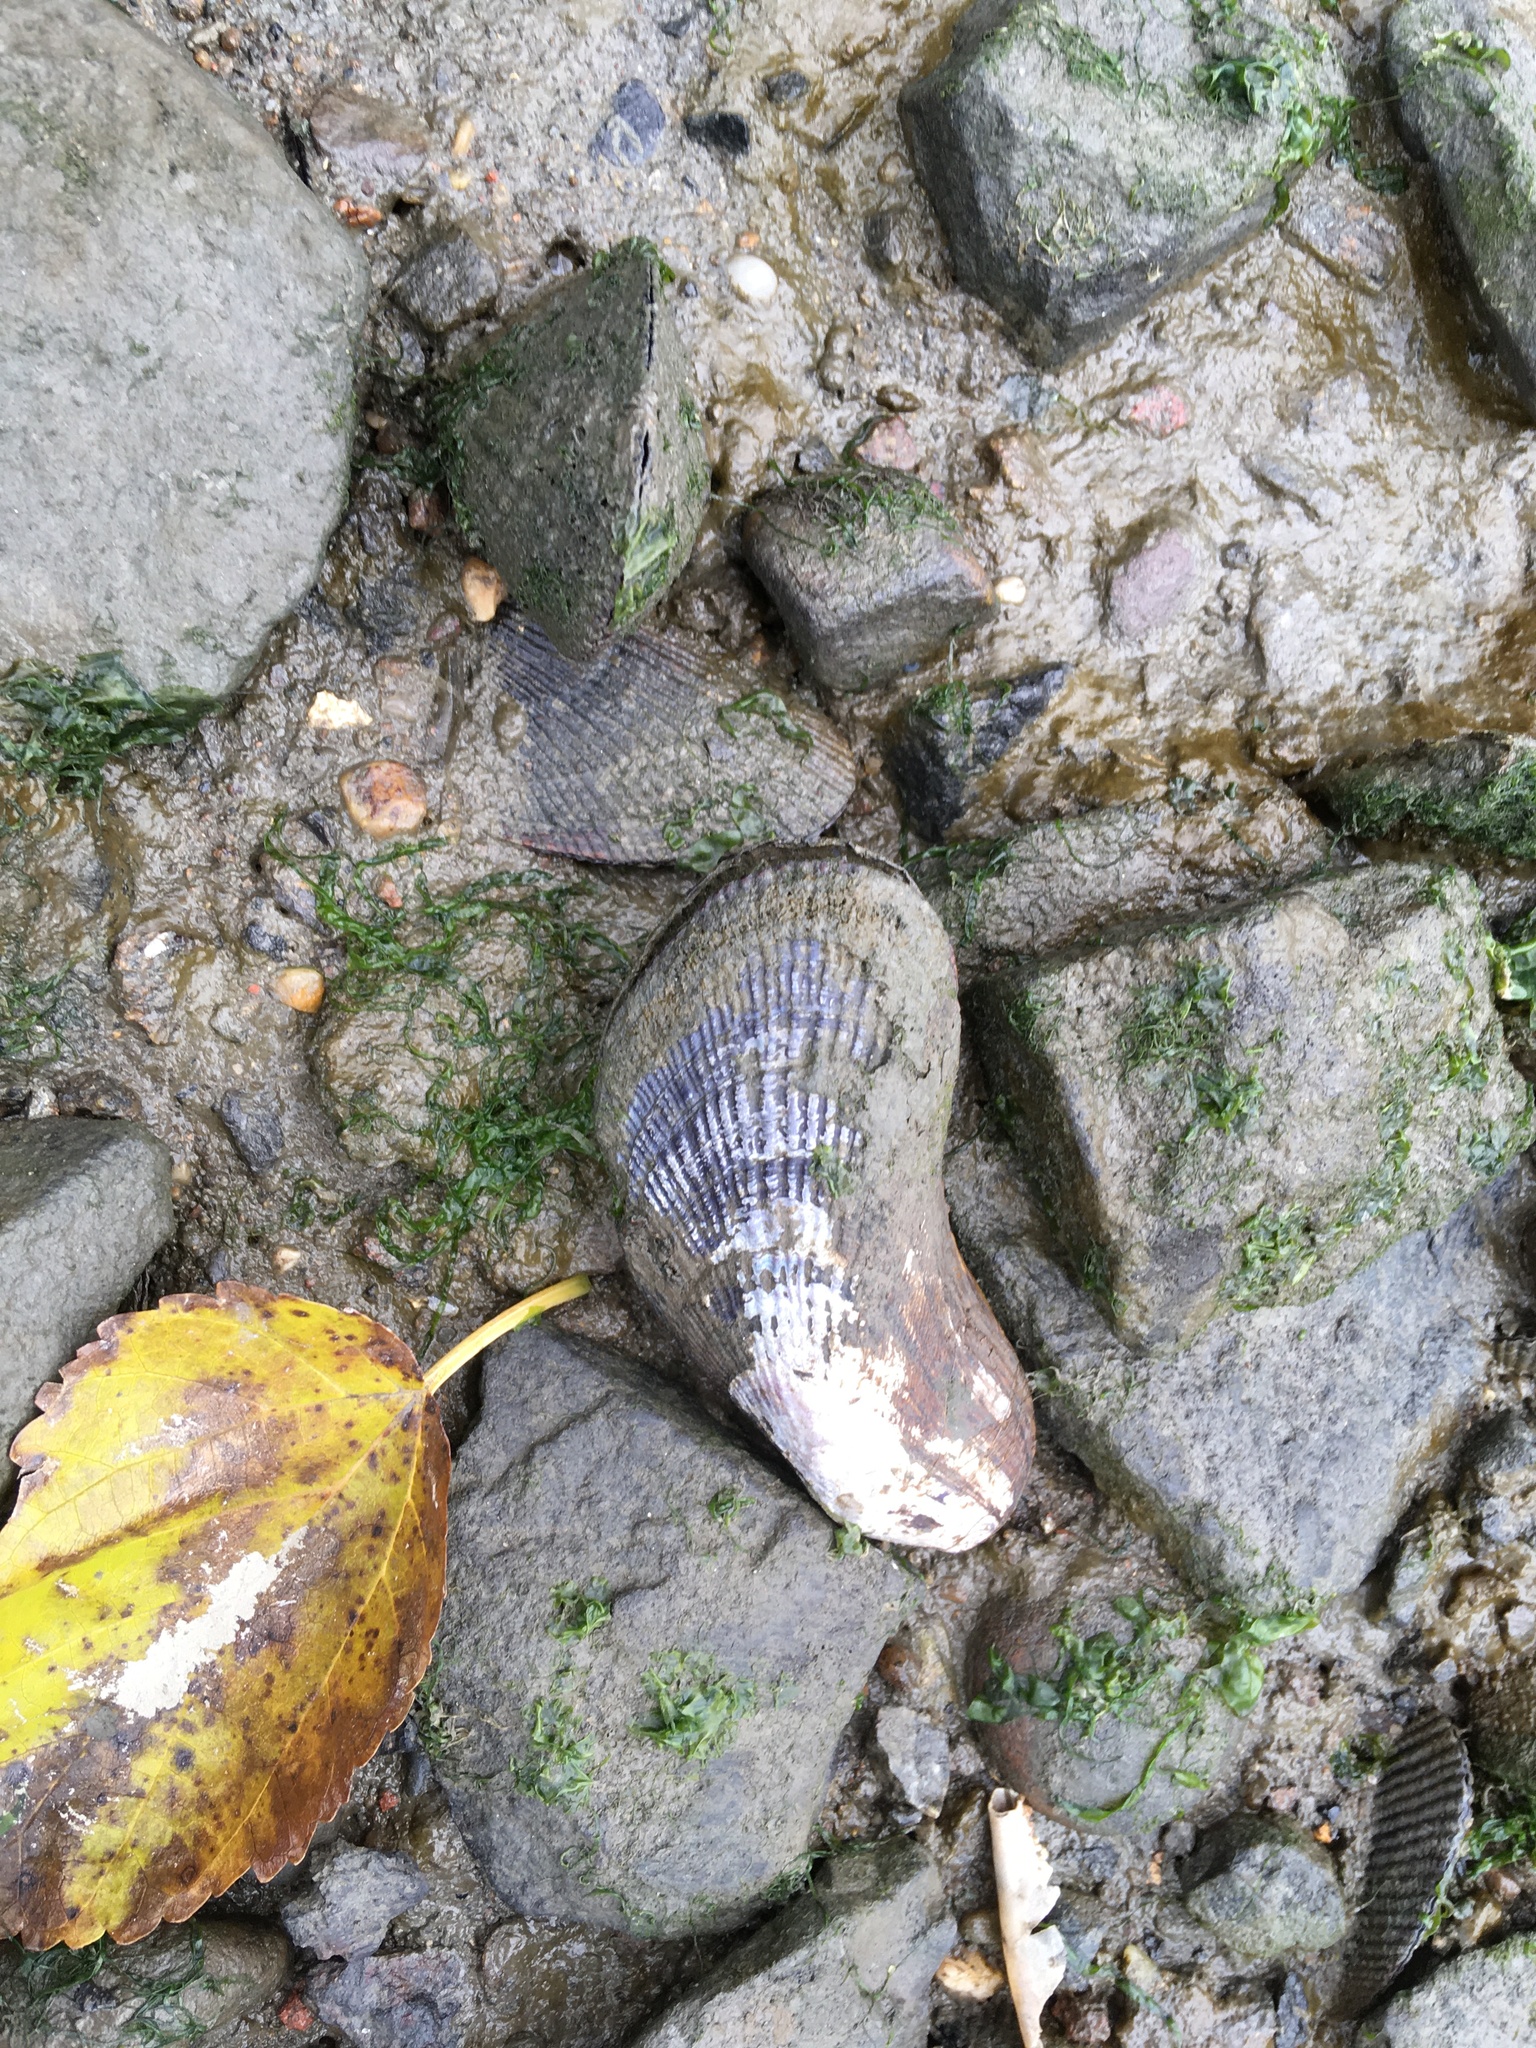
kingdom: Animalia
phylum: Mollusca
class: Bivalvia
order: Mytilida
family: Mytilidae
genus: Geukensia
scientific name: Geukensia demissa
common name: Ribbed mussel
